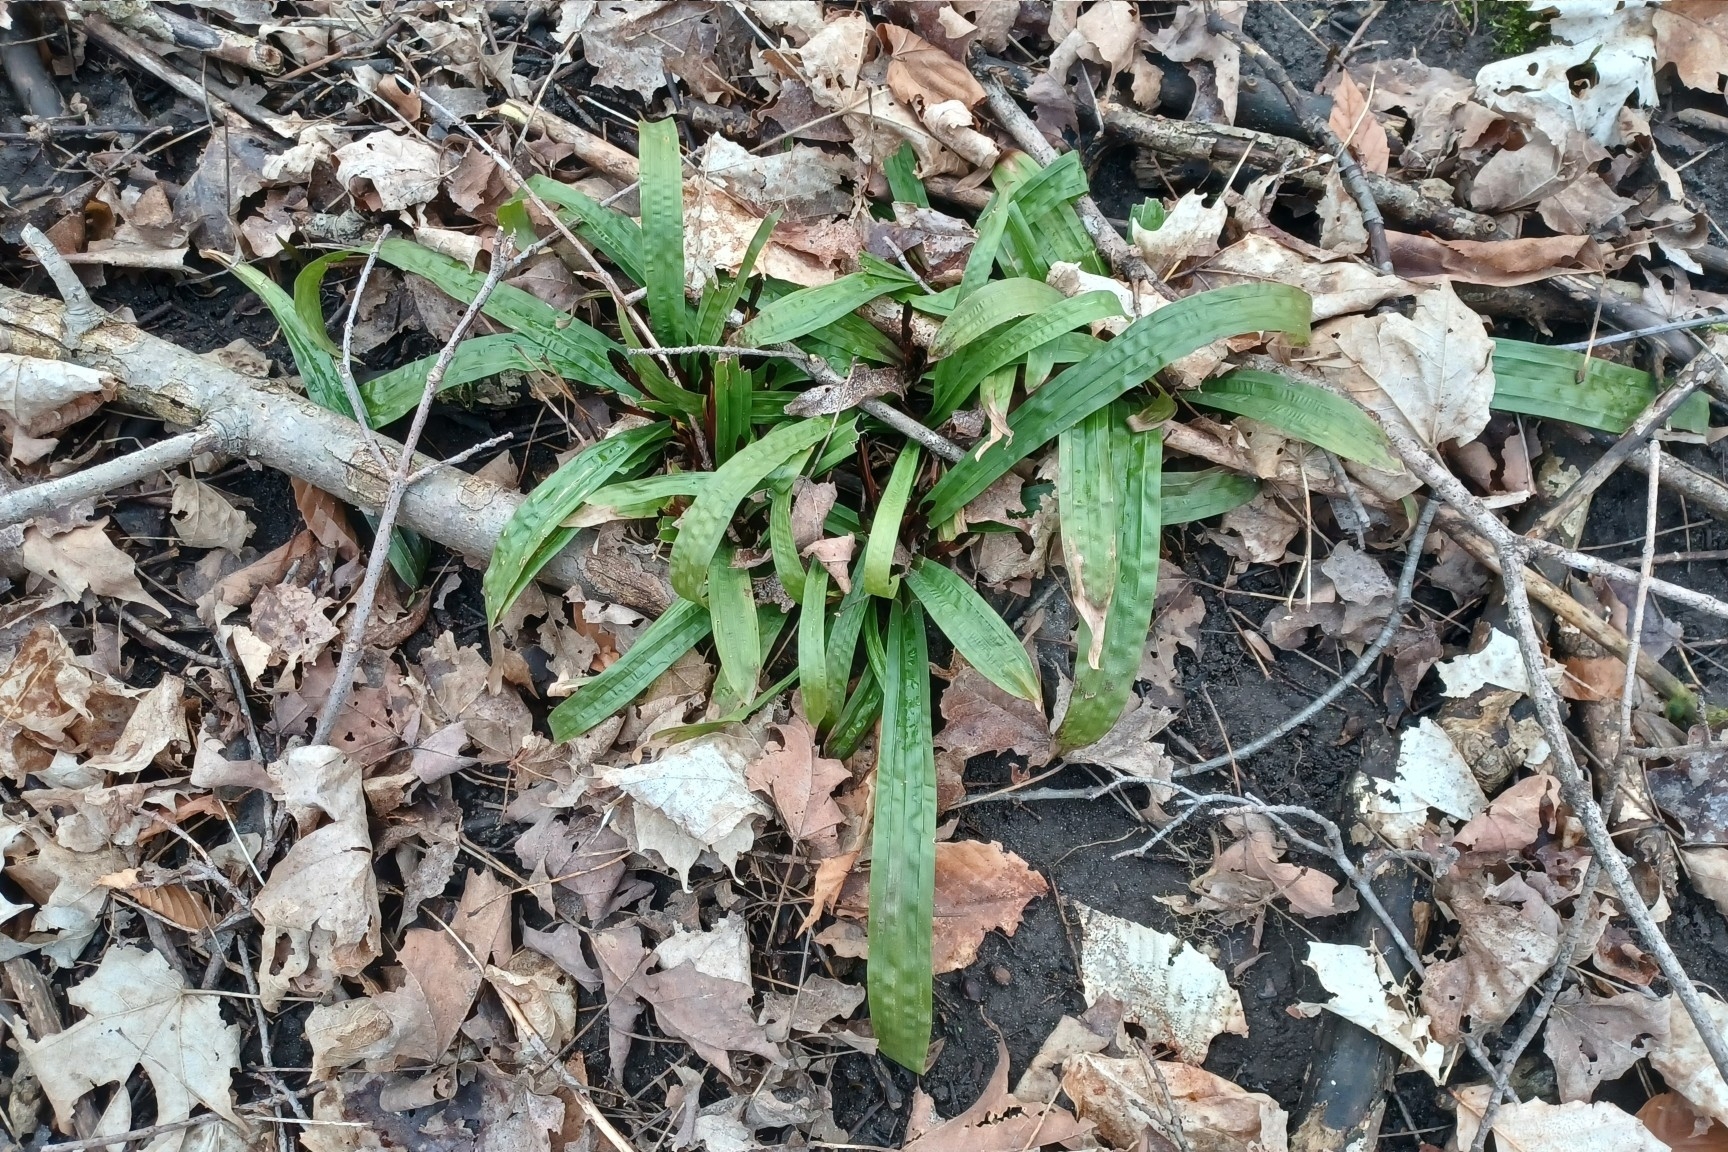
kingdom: Plantae
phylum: Tracheophyta
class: Liliopsida
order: Poales
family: Cyperaceae
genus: Carex
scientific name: Carex plantaginea
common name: Plantain-leaved sedge
